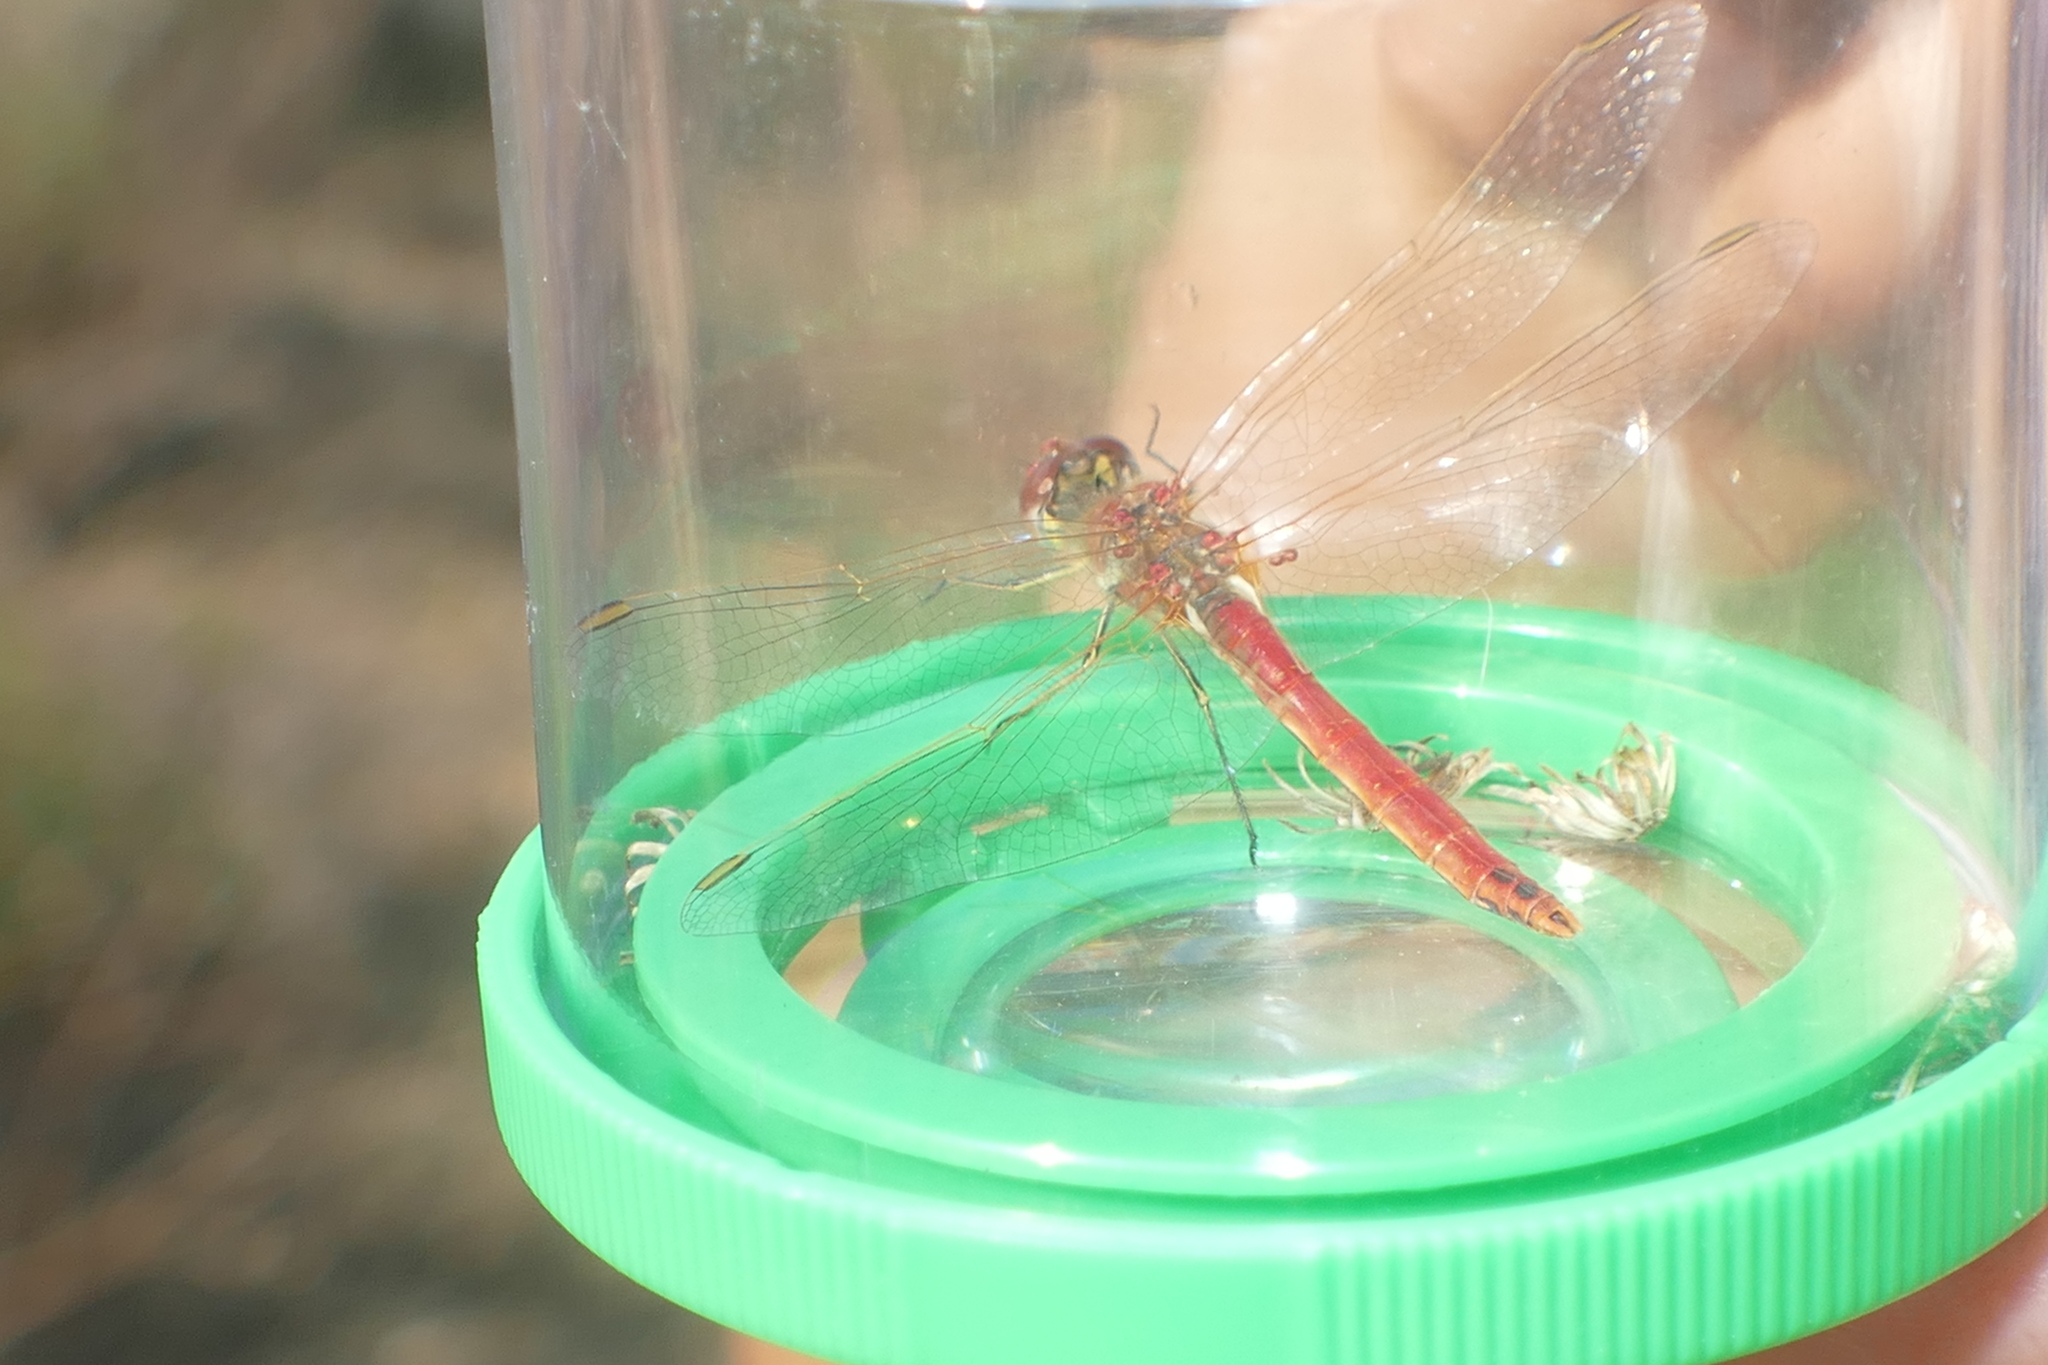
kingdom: Animalia
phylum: Arthropoda
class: Insecta
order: Odonata
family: Libellulidae
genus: Sympetrum
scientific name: Sympetrum fonscolombii
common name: Red-veined darter
